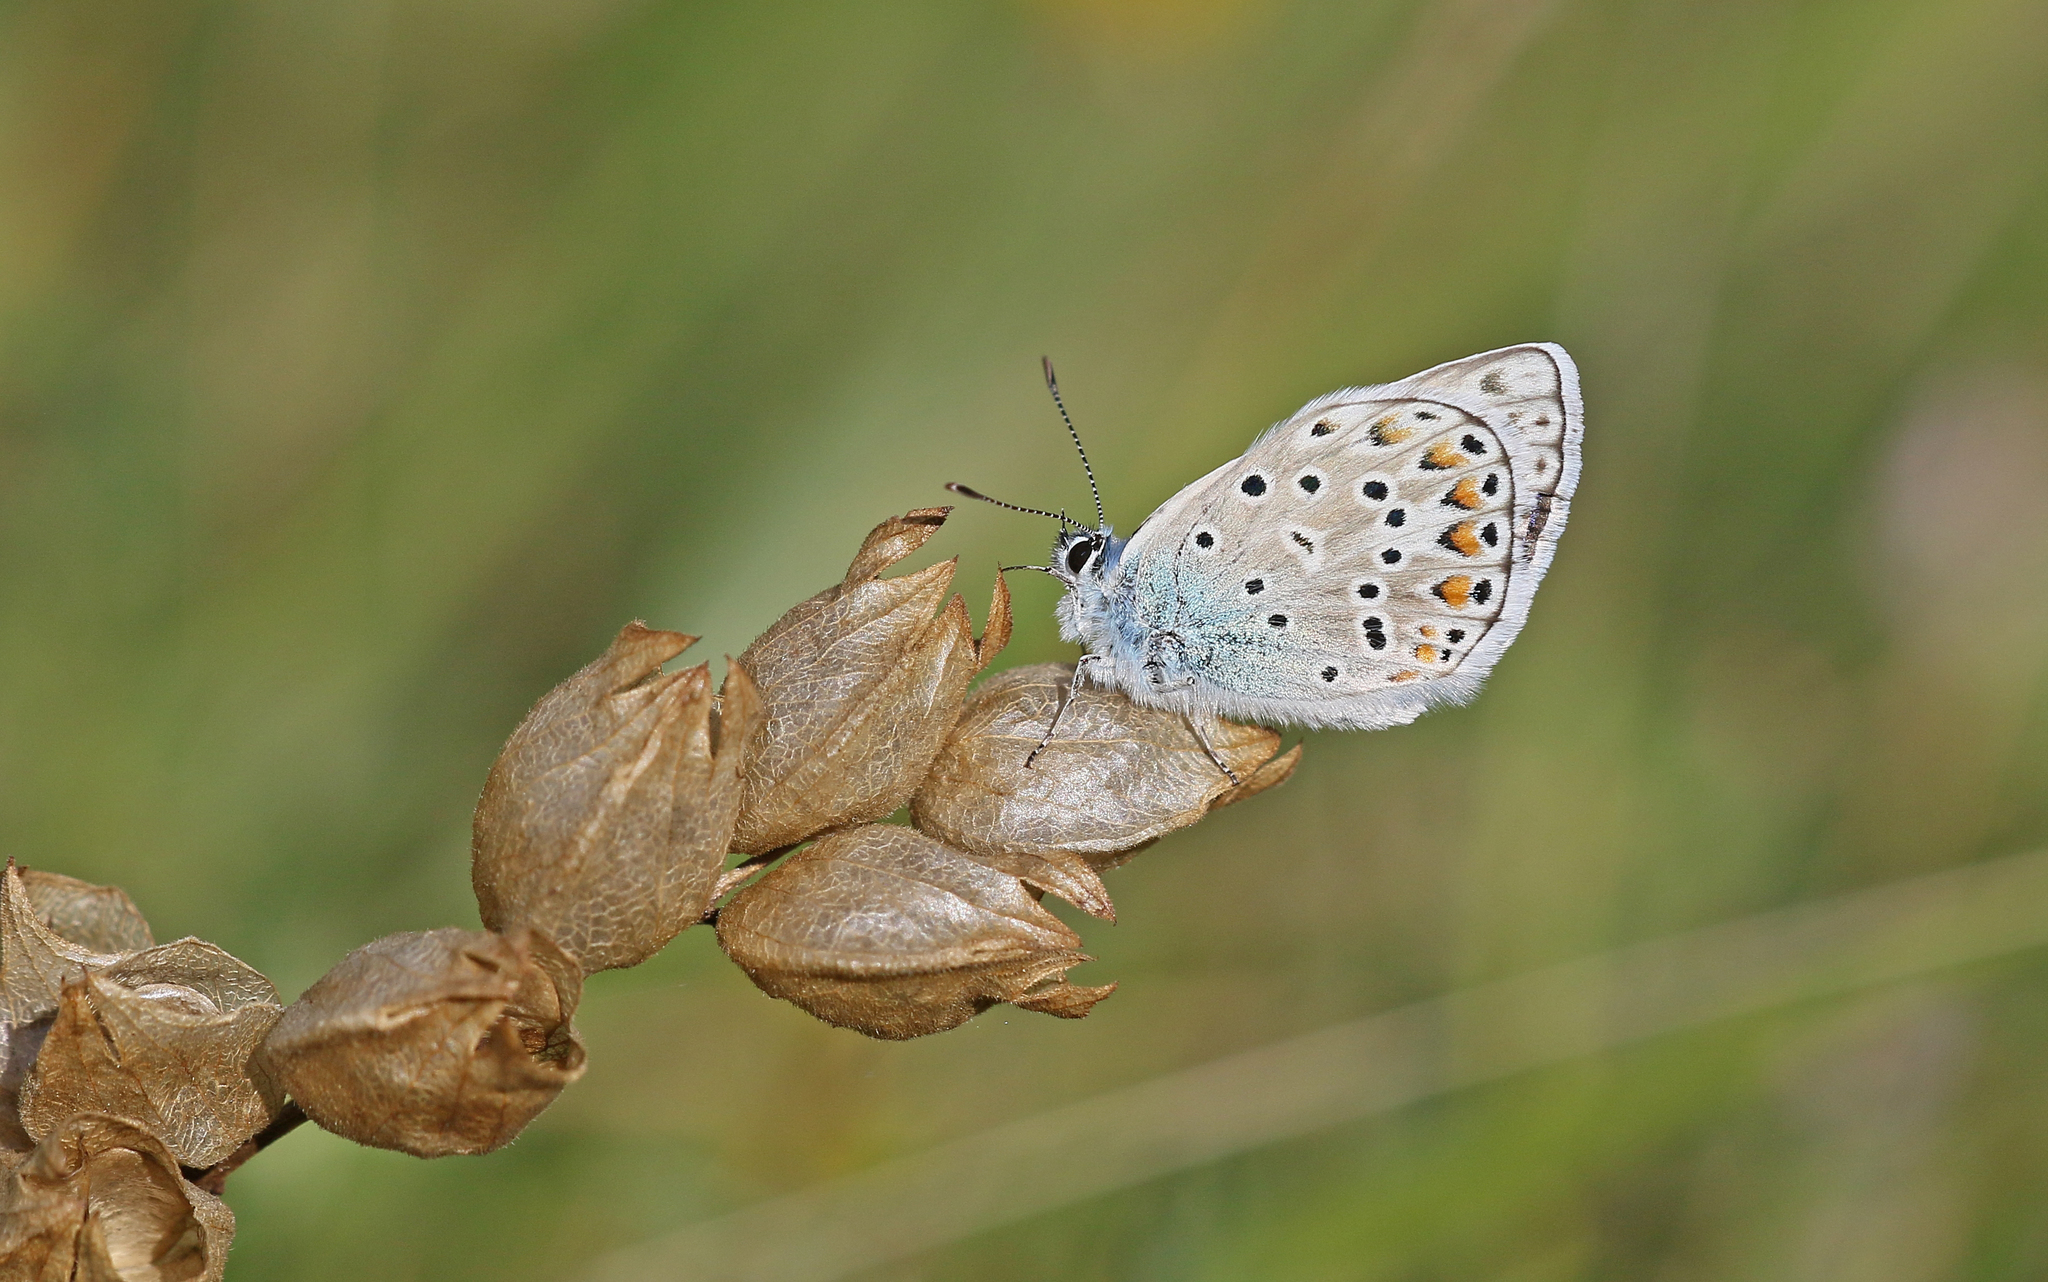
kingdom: Animalia
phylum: Arthropoda
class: Insecta
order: Lepidoptera
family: Lycaenidae
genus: Plebicula
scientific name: Plebicula escheri
